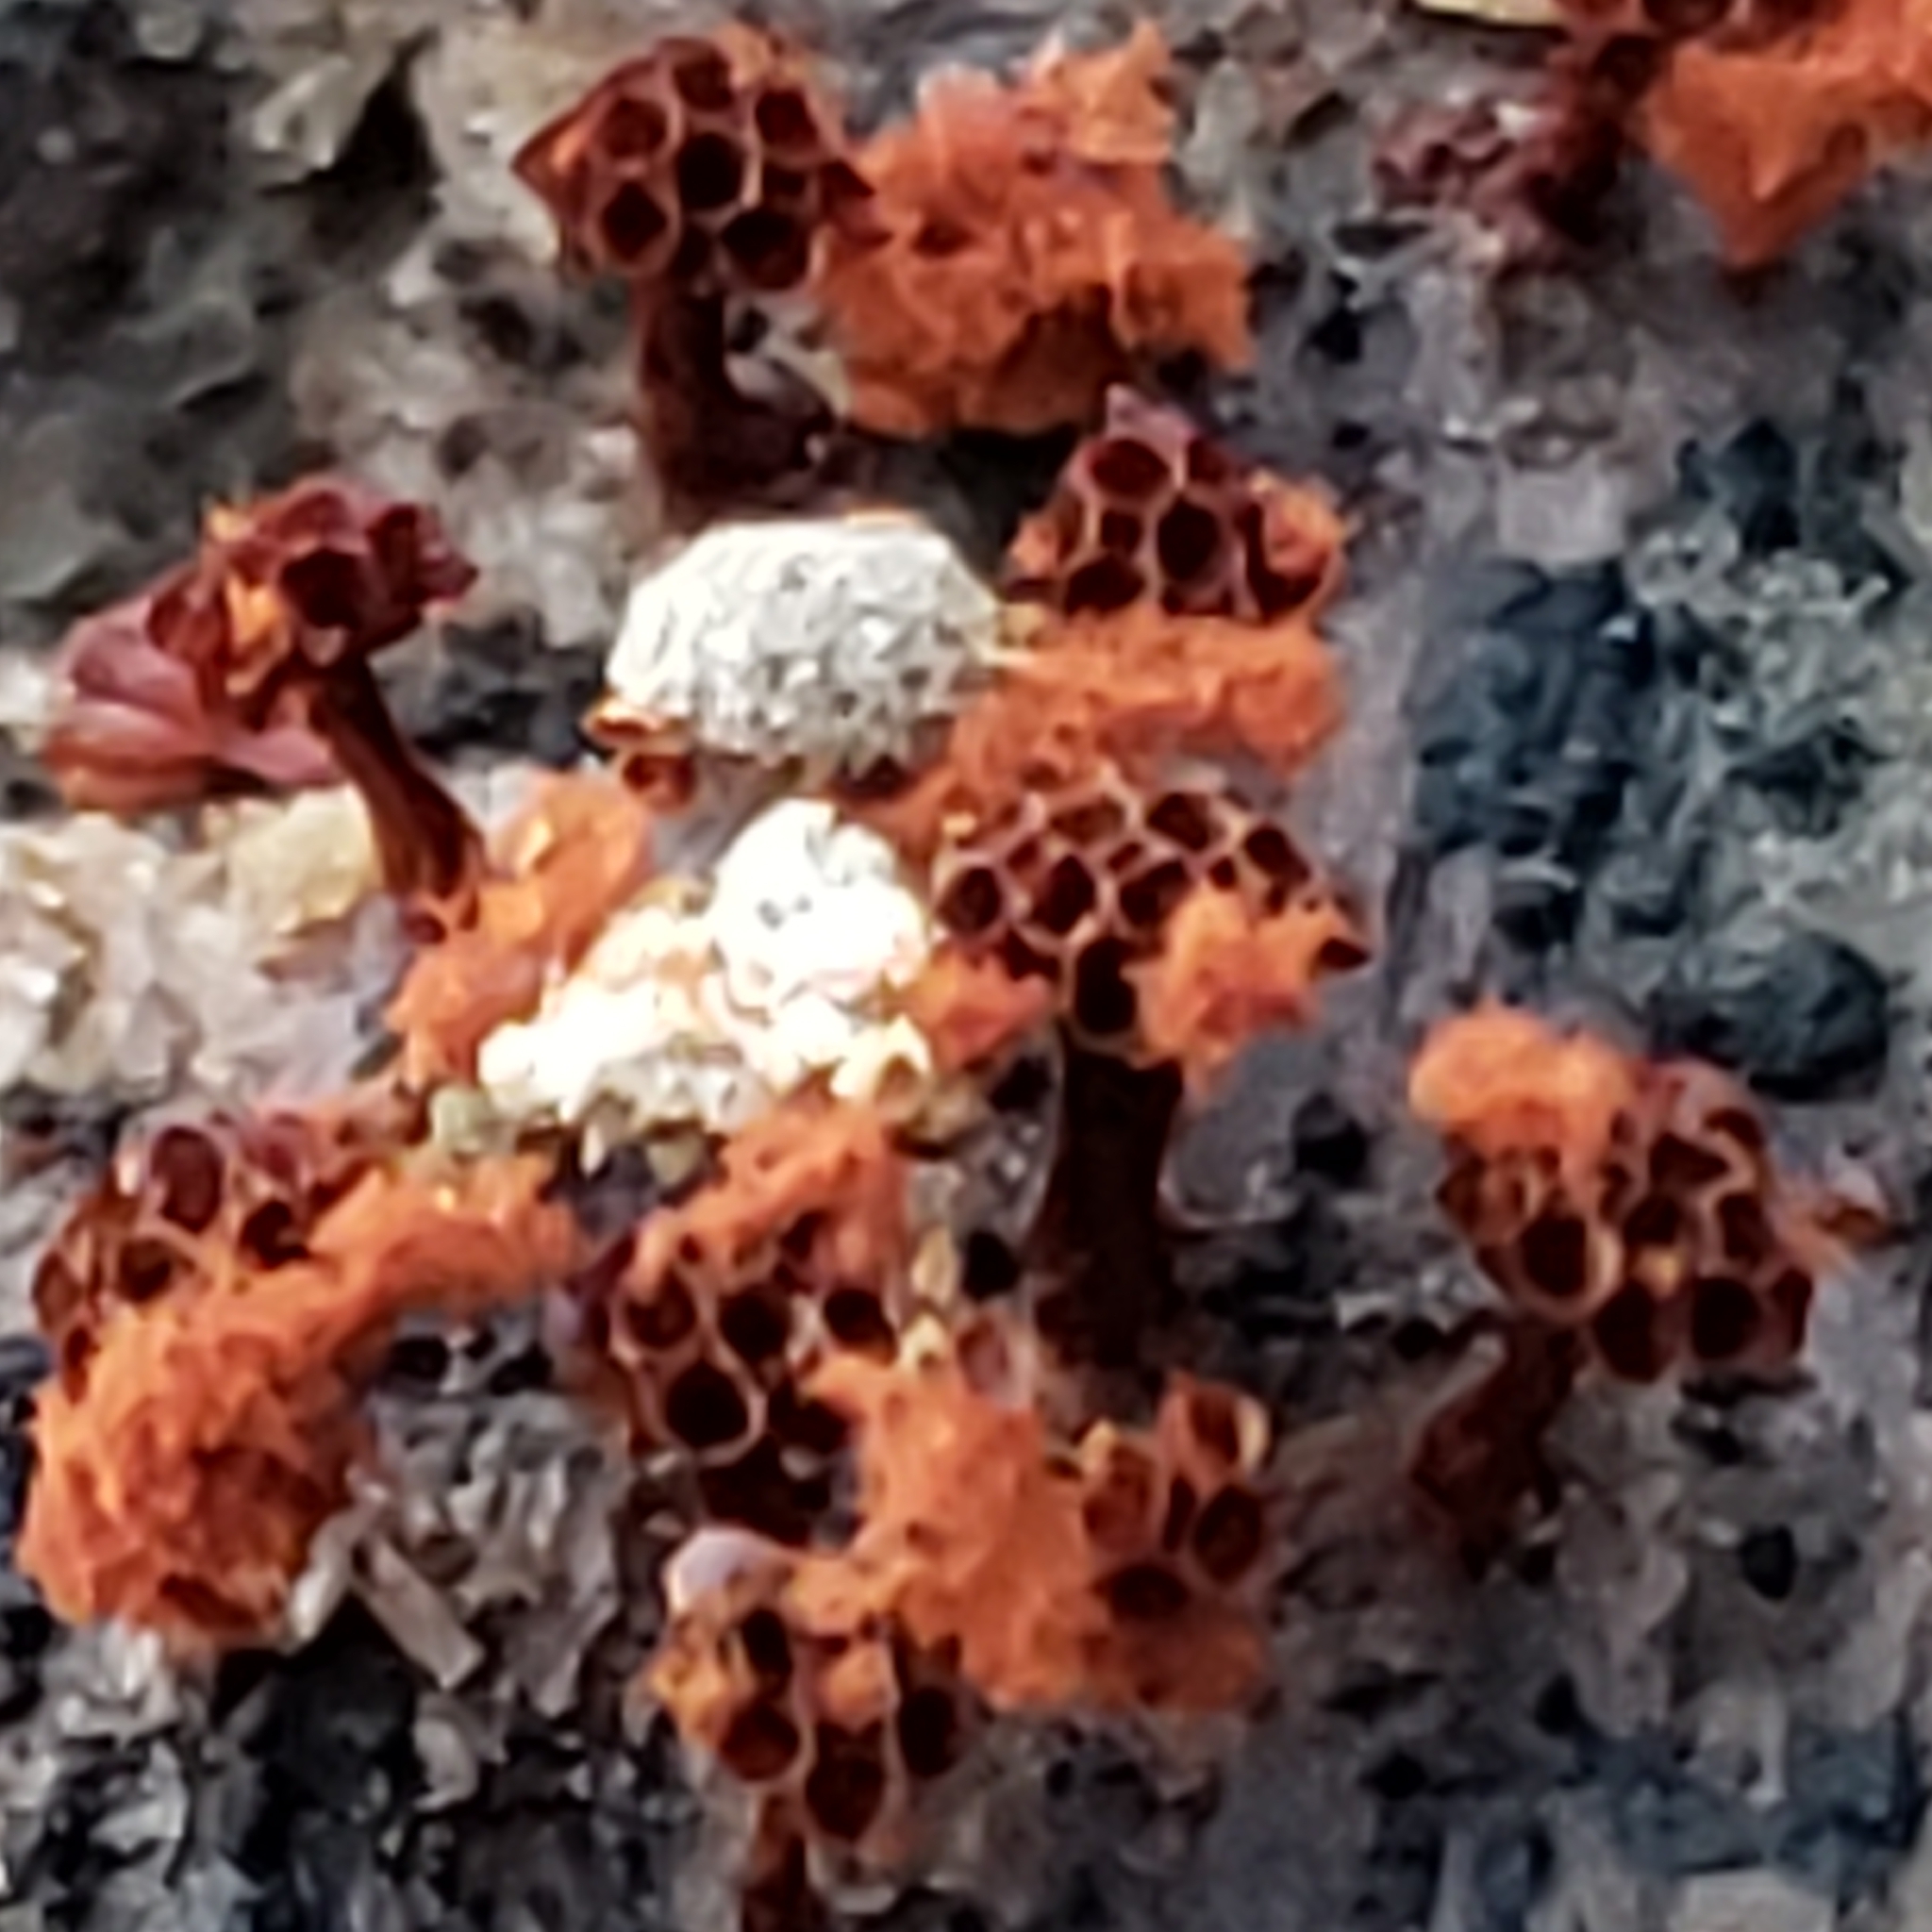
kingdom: Protozoa
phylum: Mycetozoa
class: Myxomycetes
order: Trichiales
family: Trichiaceae
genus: Metatrichia
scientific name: Metatrichia vesparia
